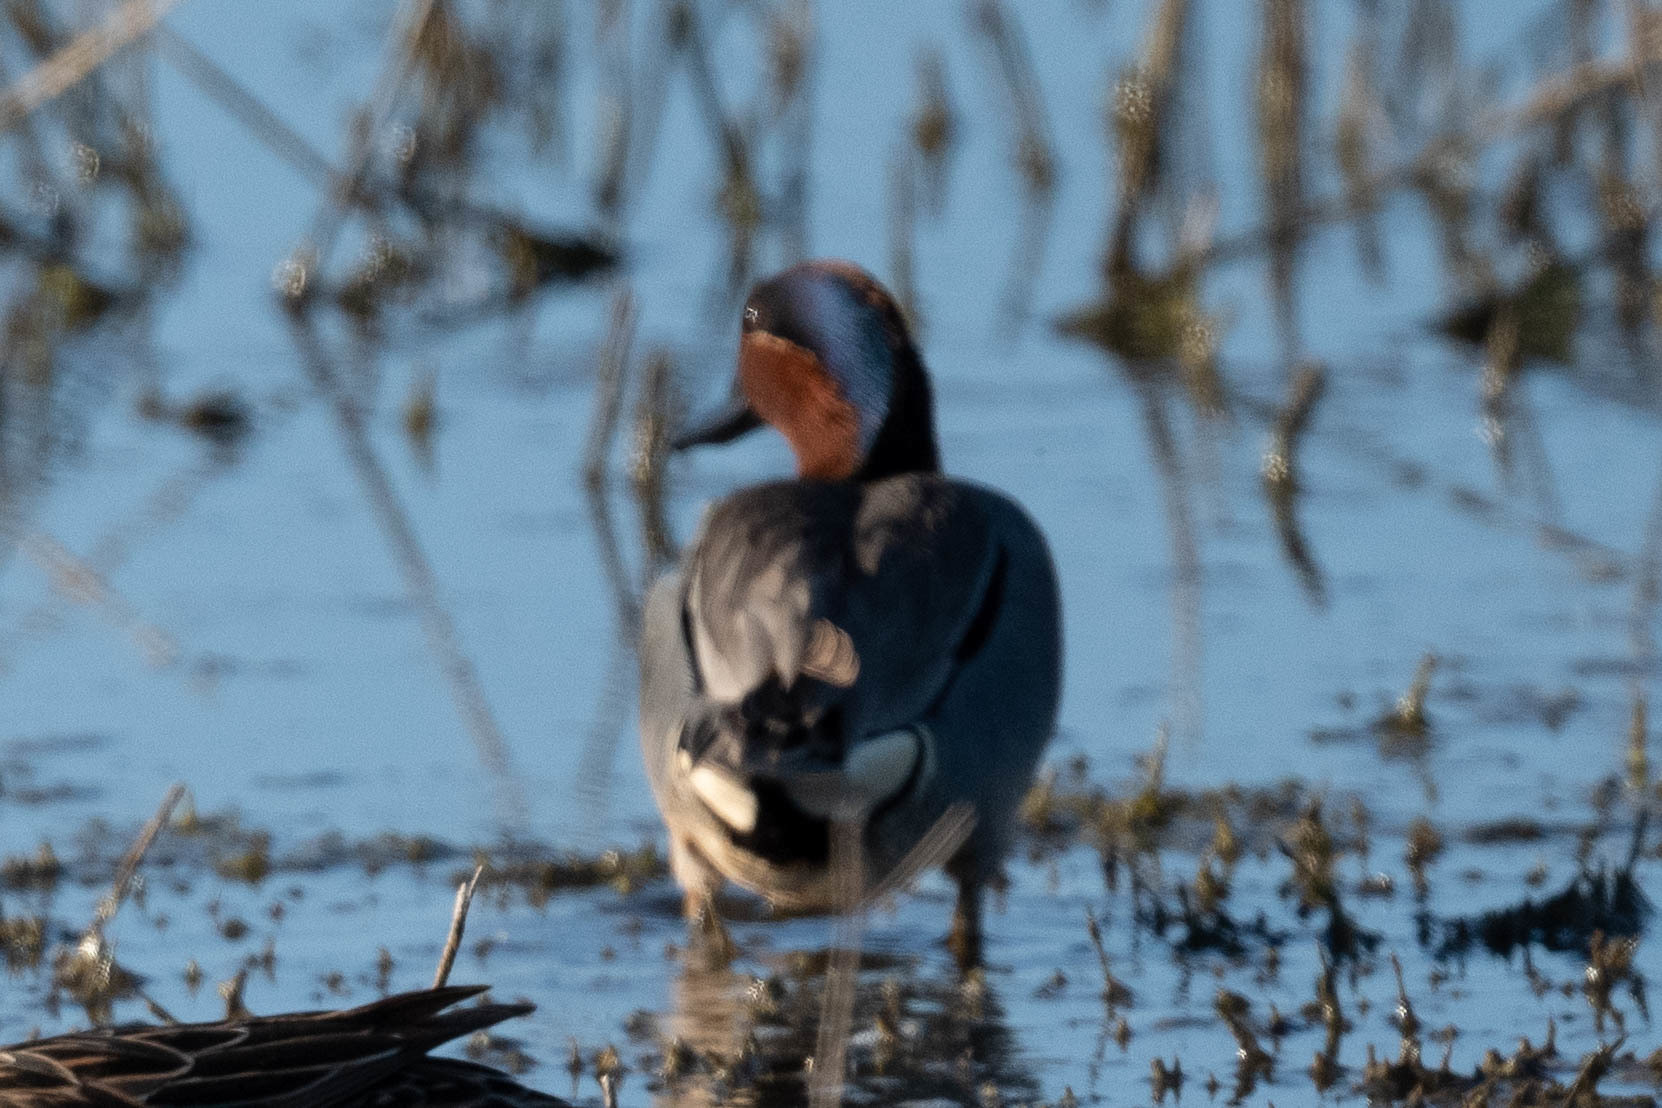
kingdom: Animalia
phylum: Chordata
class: Aves
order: Anseriformes
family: Anatidae
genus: Anas
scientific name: Anas crecca
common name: Eurasian teal
